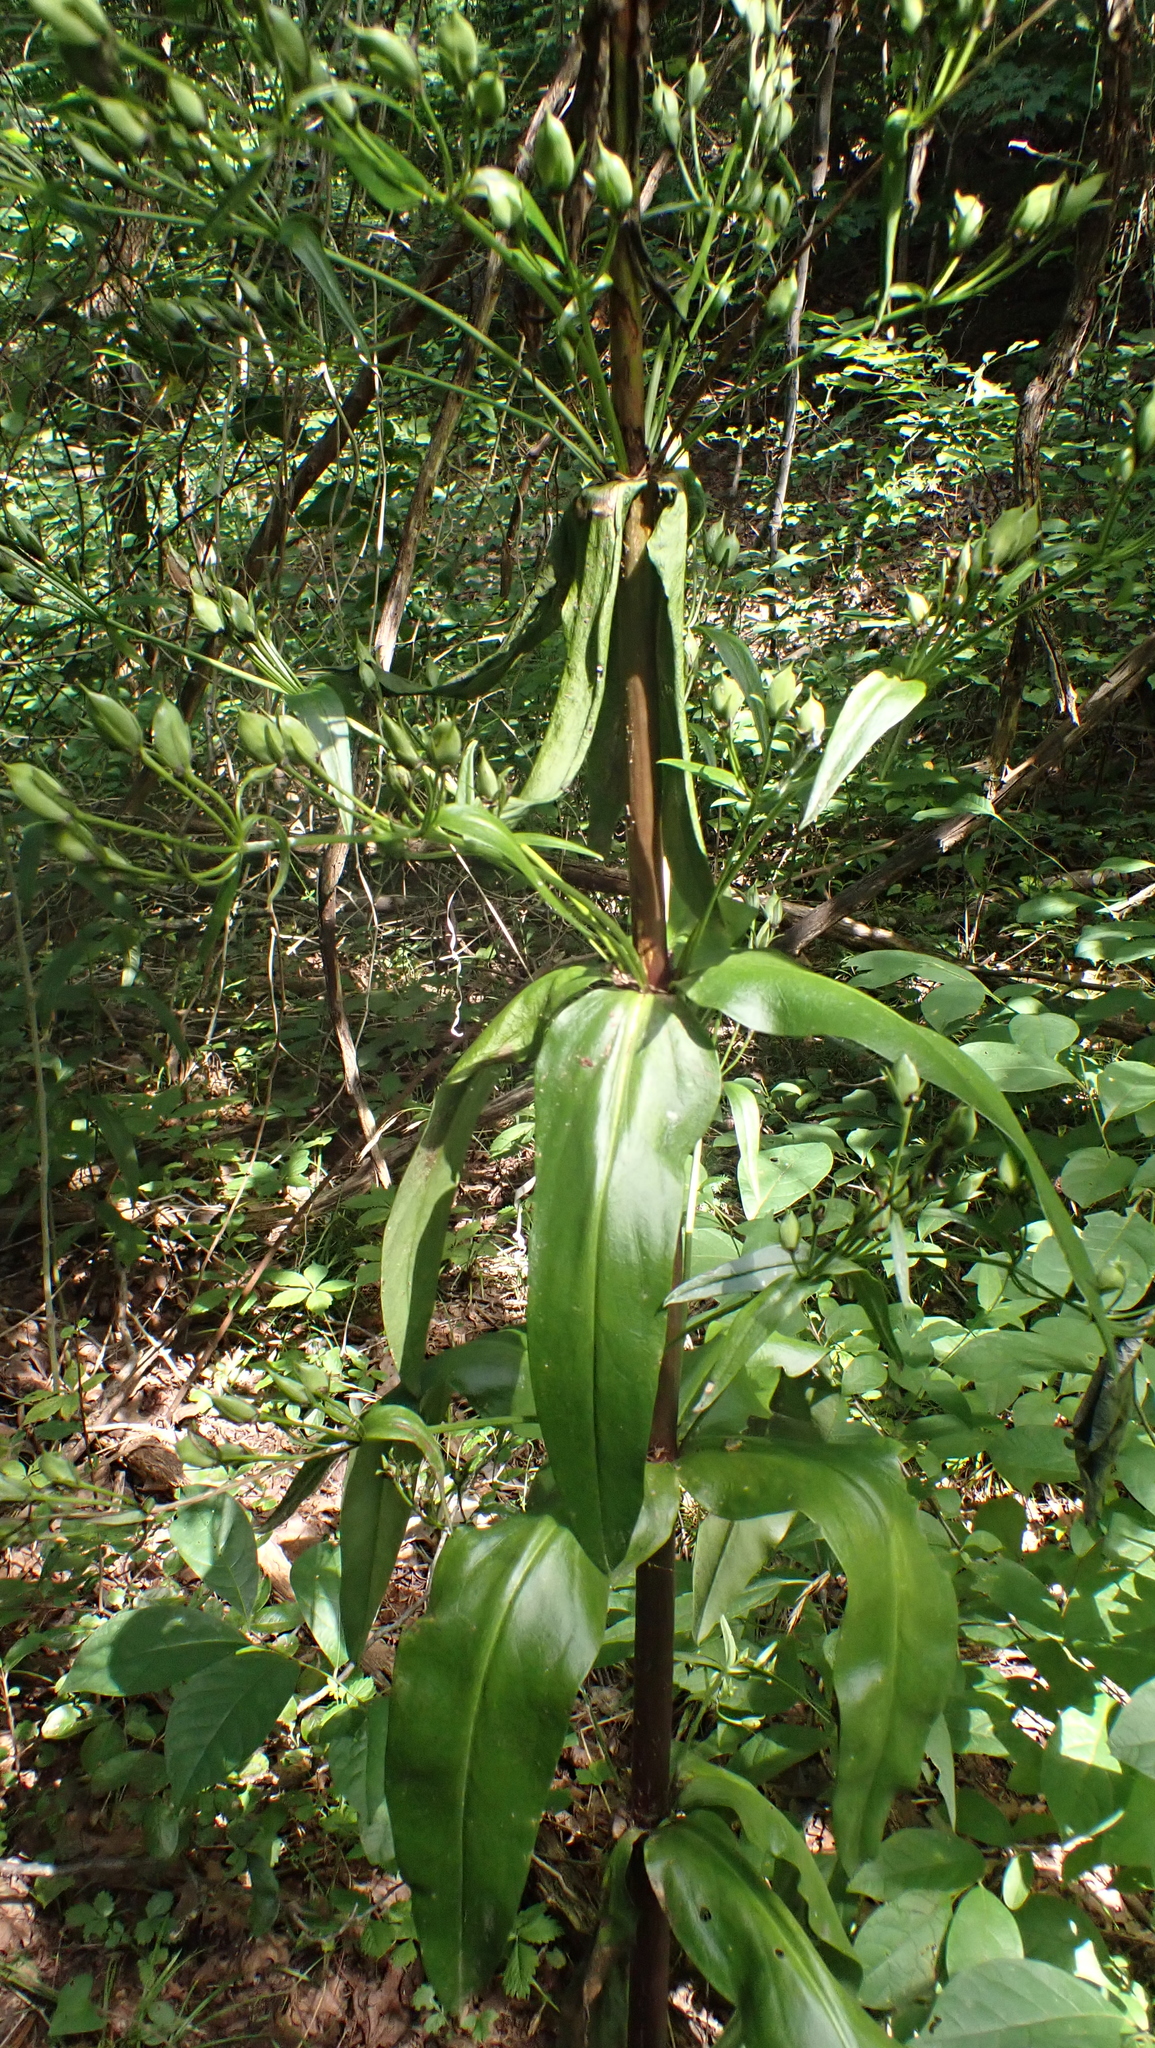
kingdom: Plantae
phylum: Tracheophyta
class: Magnoliopsida
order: Gentianales
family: Gentianaceae
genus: Frasera
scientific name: Frasera caroliniensis
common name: American columbo
